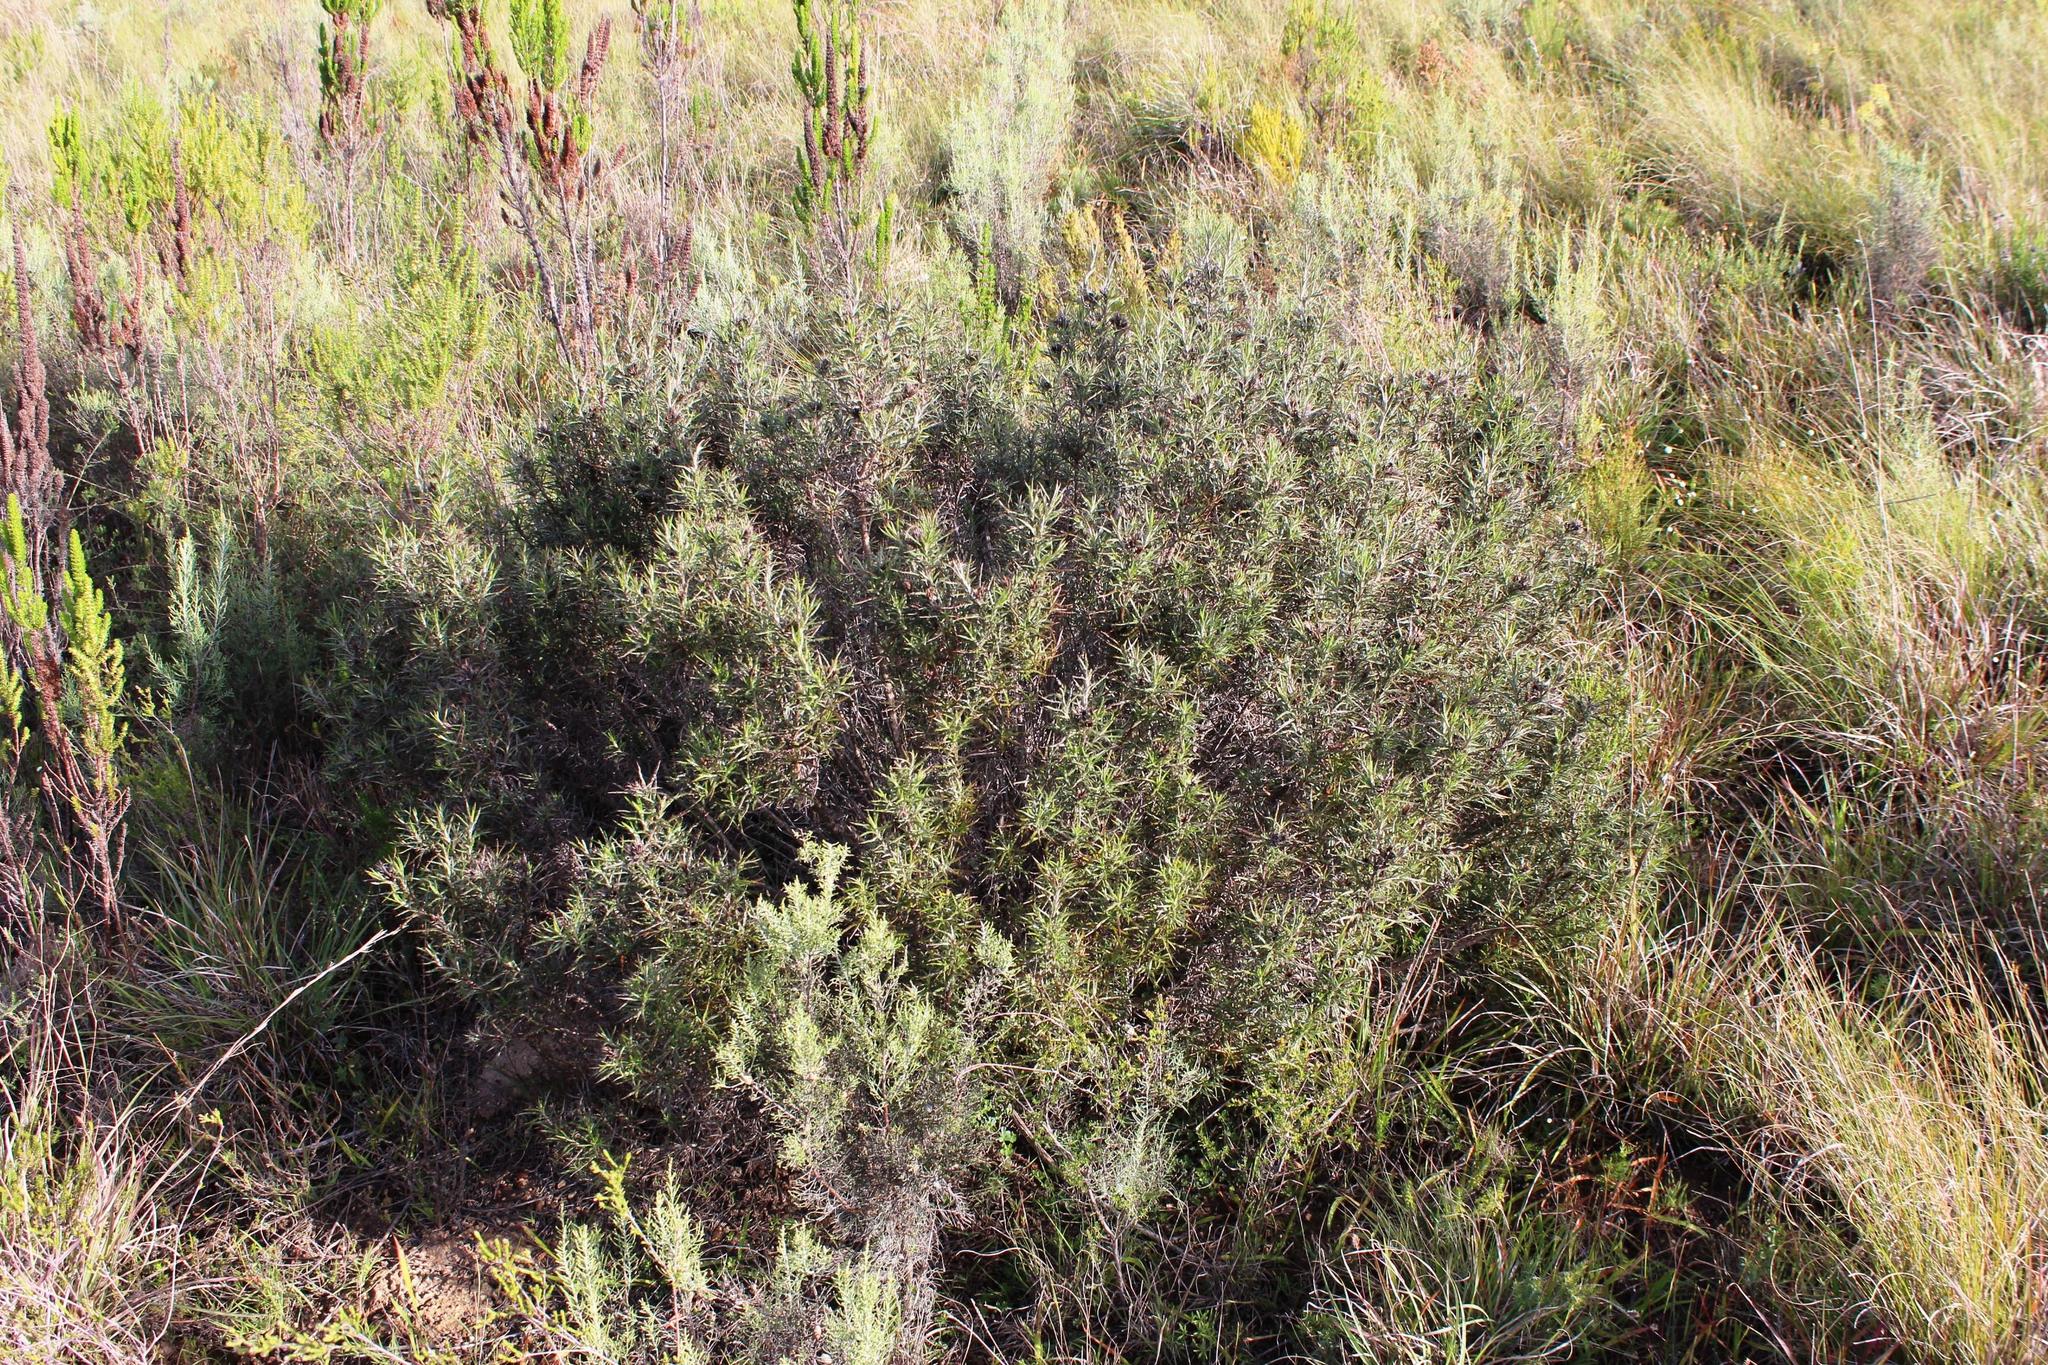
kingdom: Plantae
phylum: Tracheophyta
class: Magnoliopsida
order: Asterales
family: Asteraceae
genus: Berkheya
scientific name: Berkheya angusta
